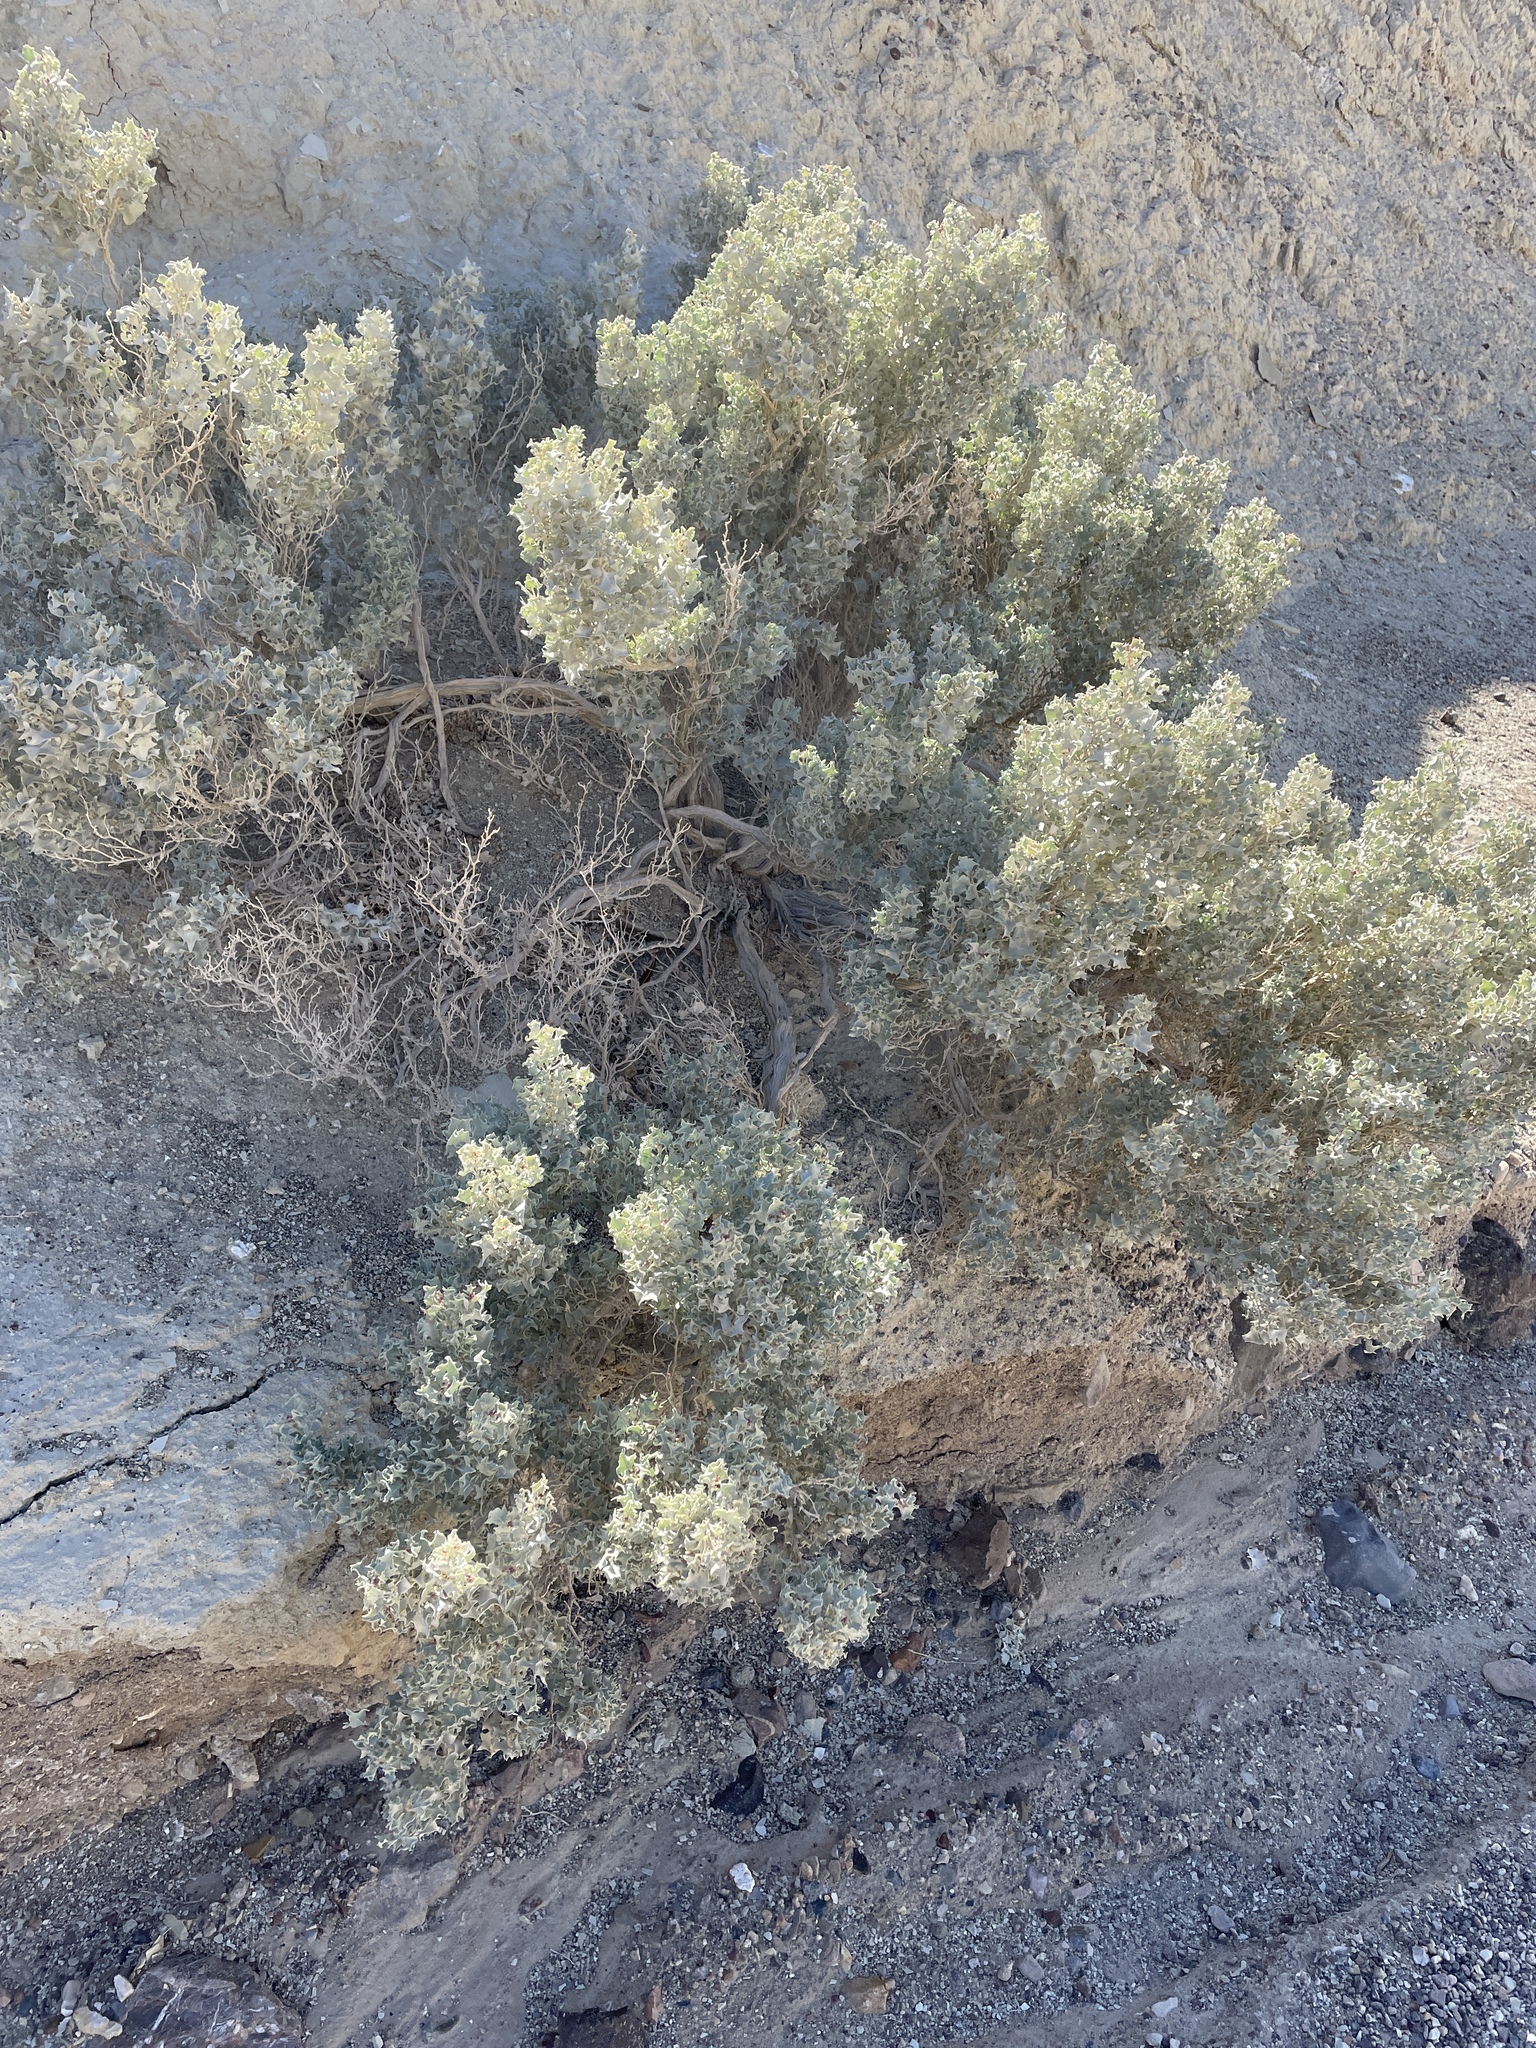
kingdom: Plantae
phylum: Tracheophyta
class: Magnoliopsida
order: Caryophyllales
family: Amaranthaceae
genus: Atriplex
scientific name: Atriplex hymenelytra
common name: Desert-holly
